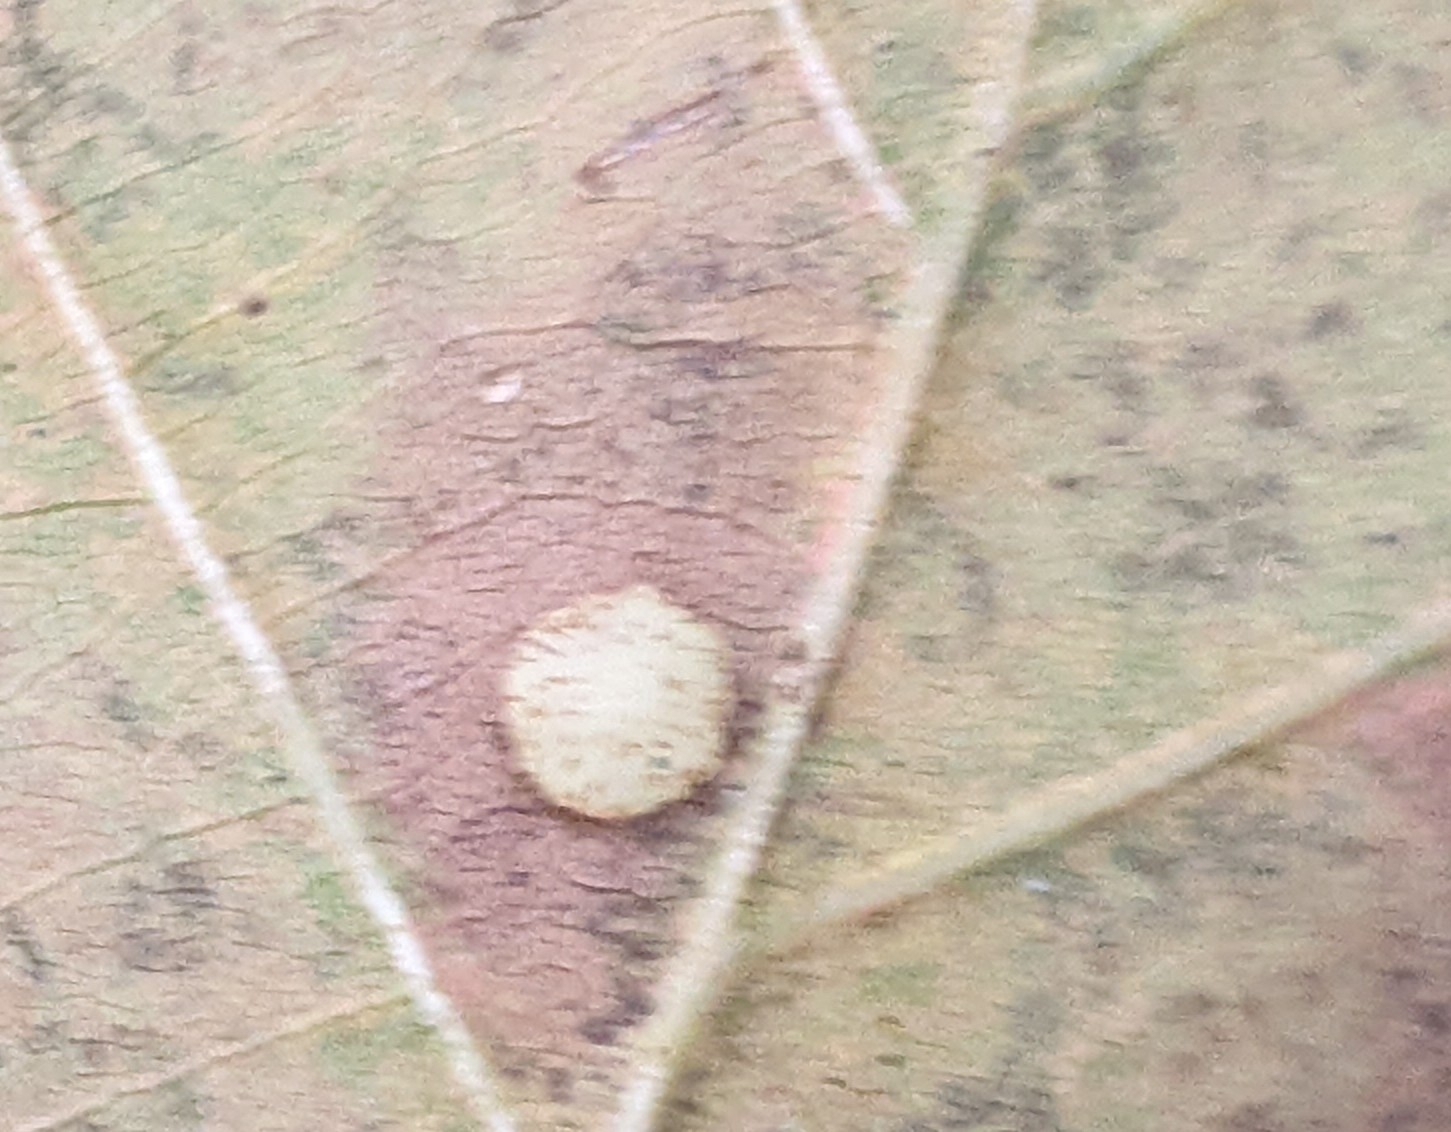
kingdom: Animalia
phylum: Arthropoda
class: Insecta
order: Hymenoptera
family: Cynipidae
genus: Neuroterus
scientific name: Neuroterus quercusbaccarum
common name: Common spangle gall
